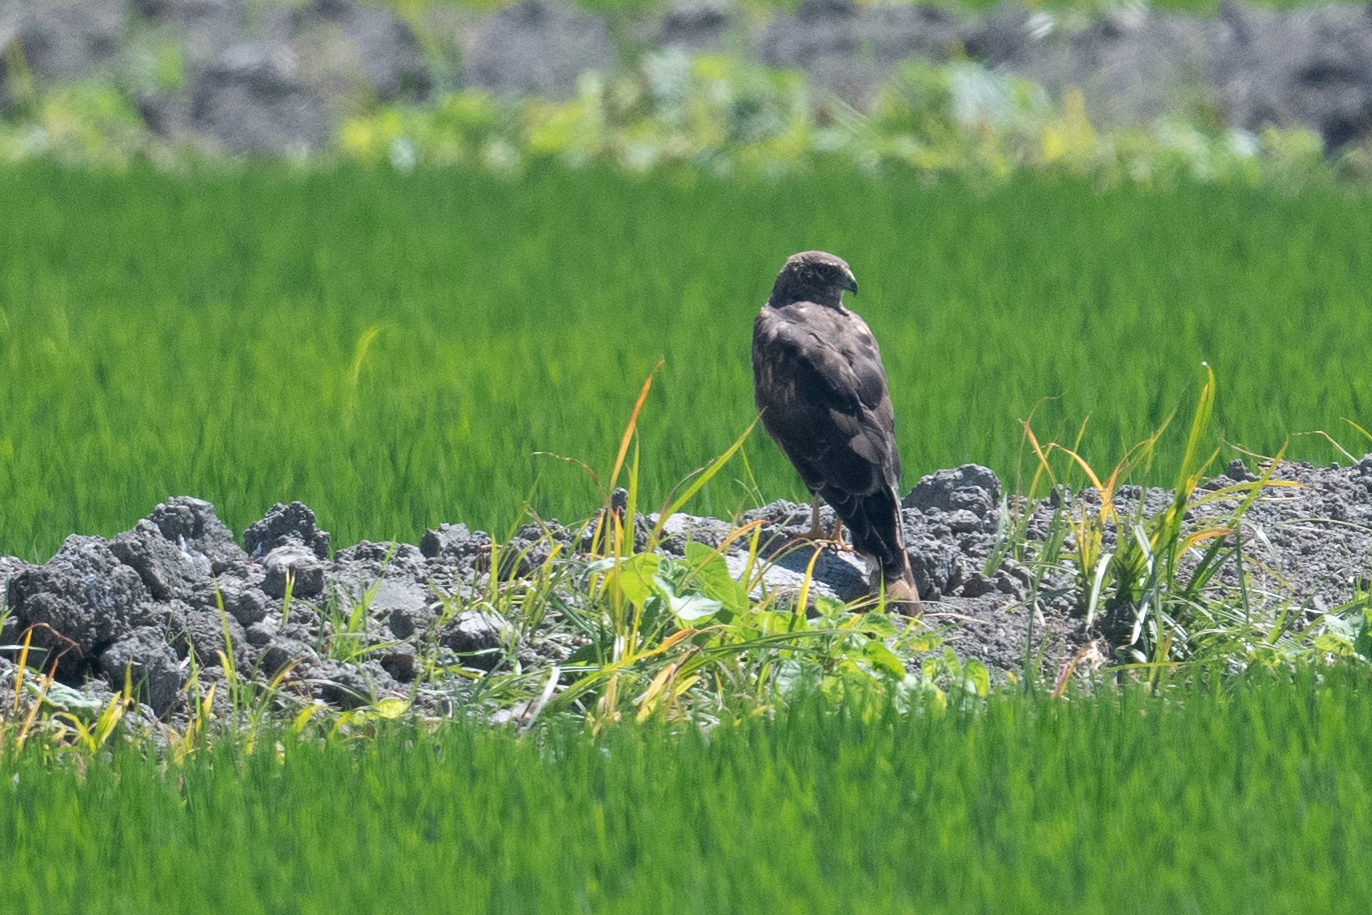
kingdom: Animalia
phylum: Chordata
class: Aves
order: Accipitriformes
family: Accipitridae
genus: Circus
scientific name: Circus cyaneus
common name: Hen harrier
